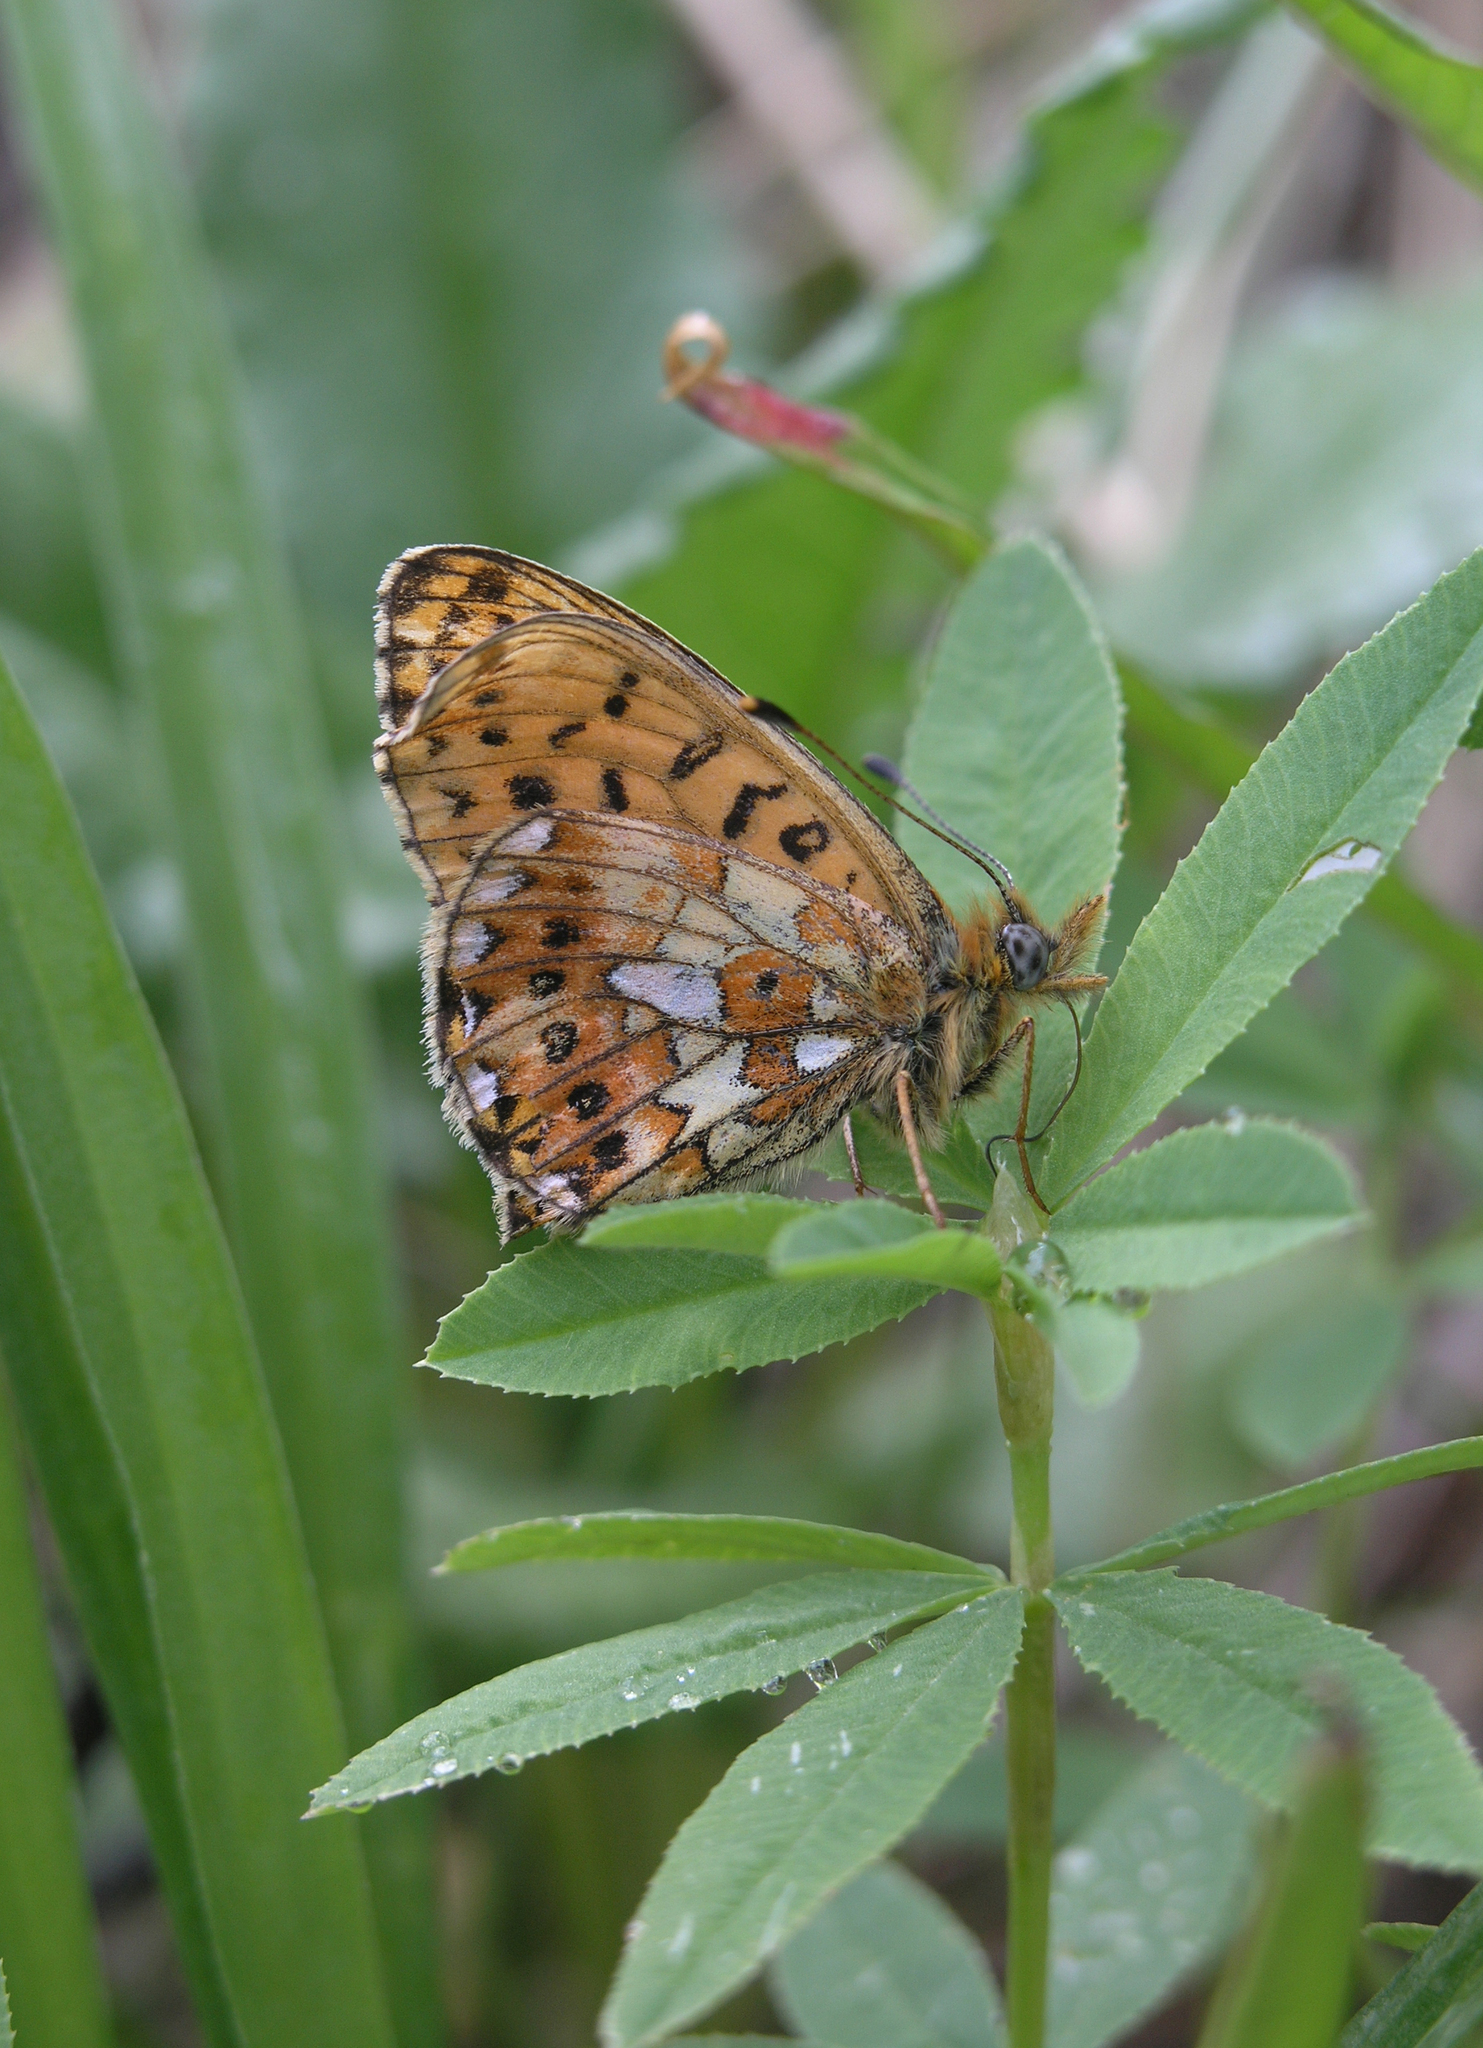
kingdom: Animalia
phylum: Arthropoda
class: Insecta
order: Lepidoptera
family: Nymphalidae
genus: Clossiana
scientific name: Clossiana euphrosyne
